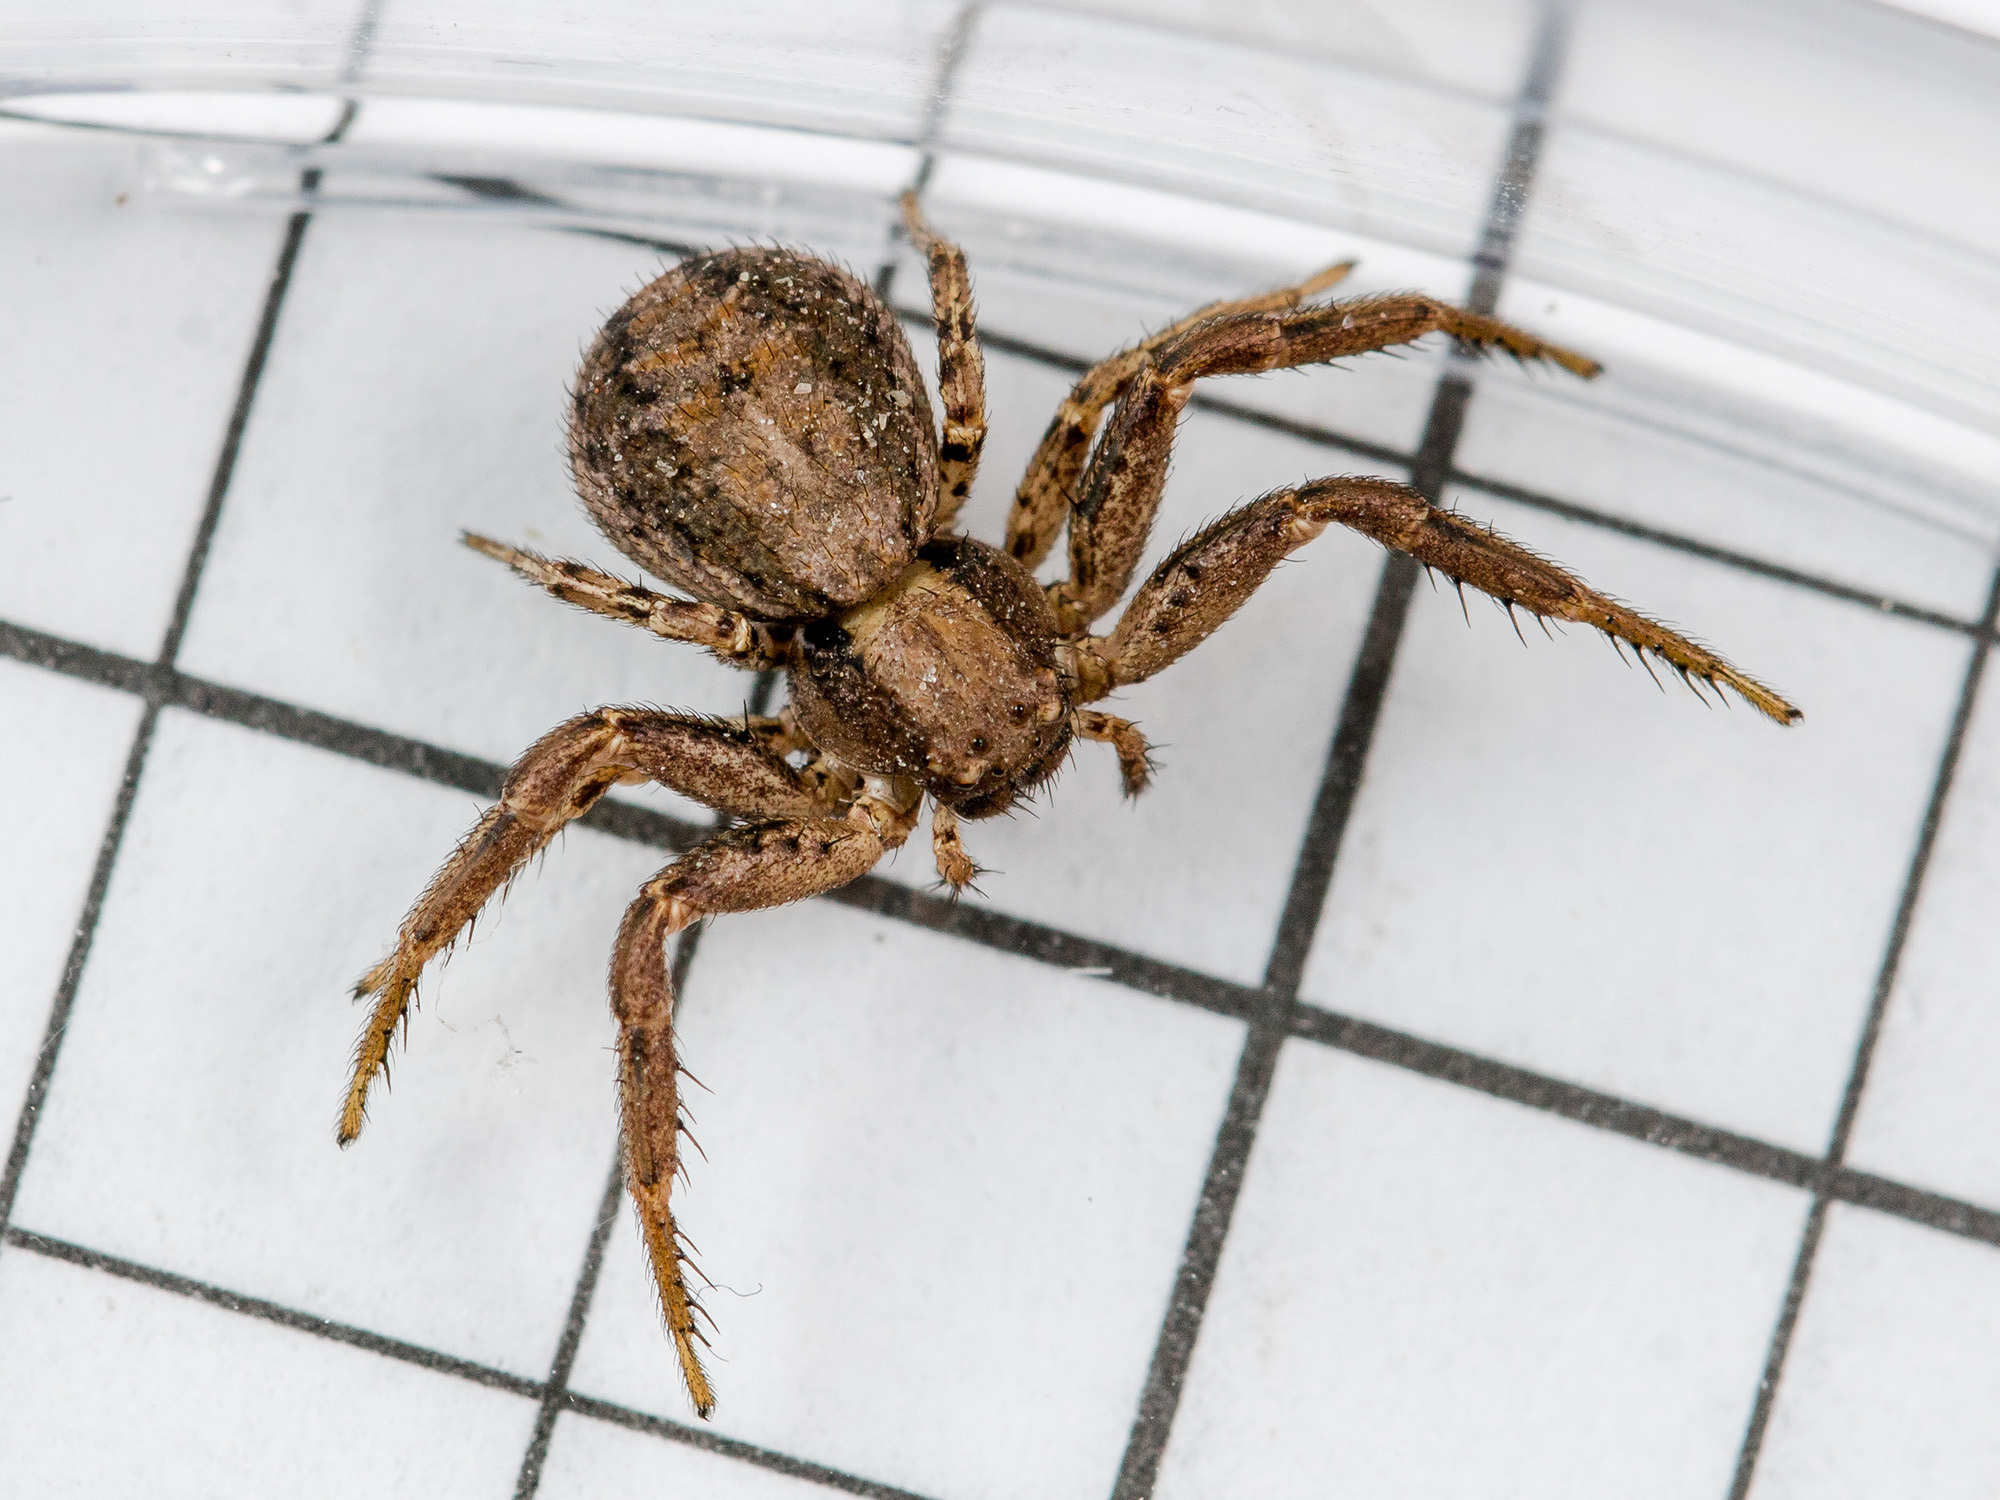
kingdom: Animalia
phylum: Arthropoda
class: Arachnida
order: Araneae
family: Thomisidae
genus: Xysticus
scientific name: Xysticus marmoratus
